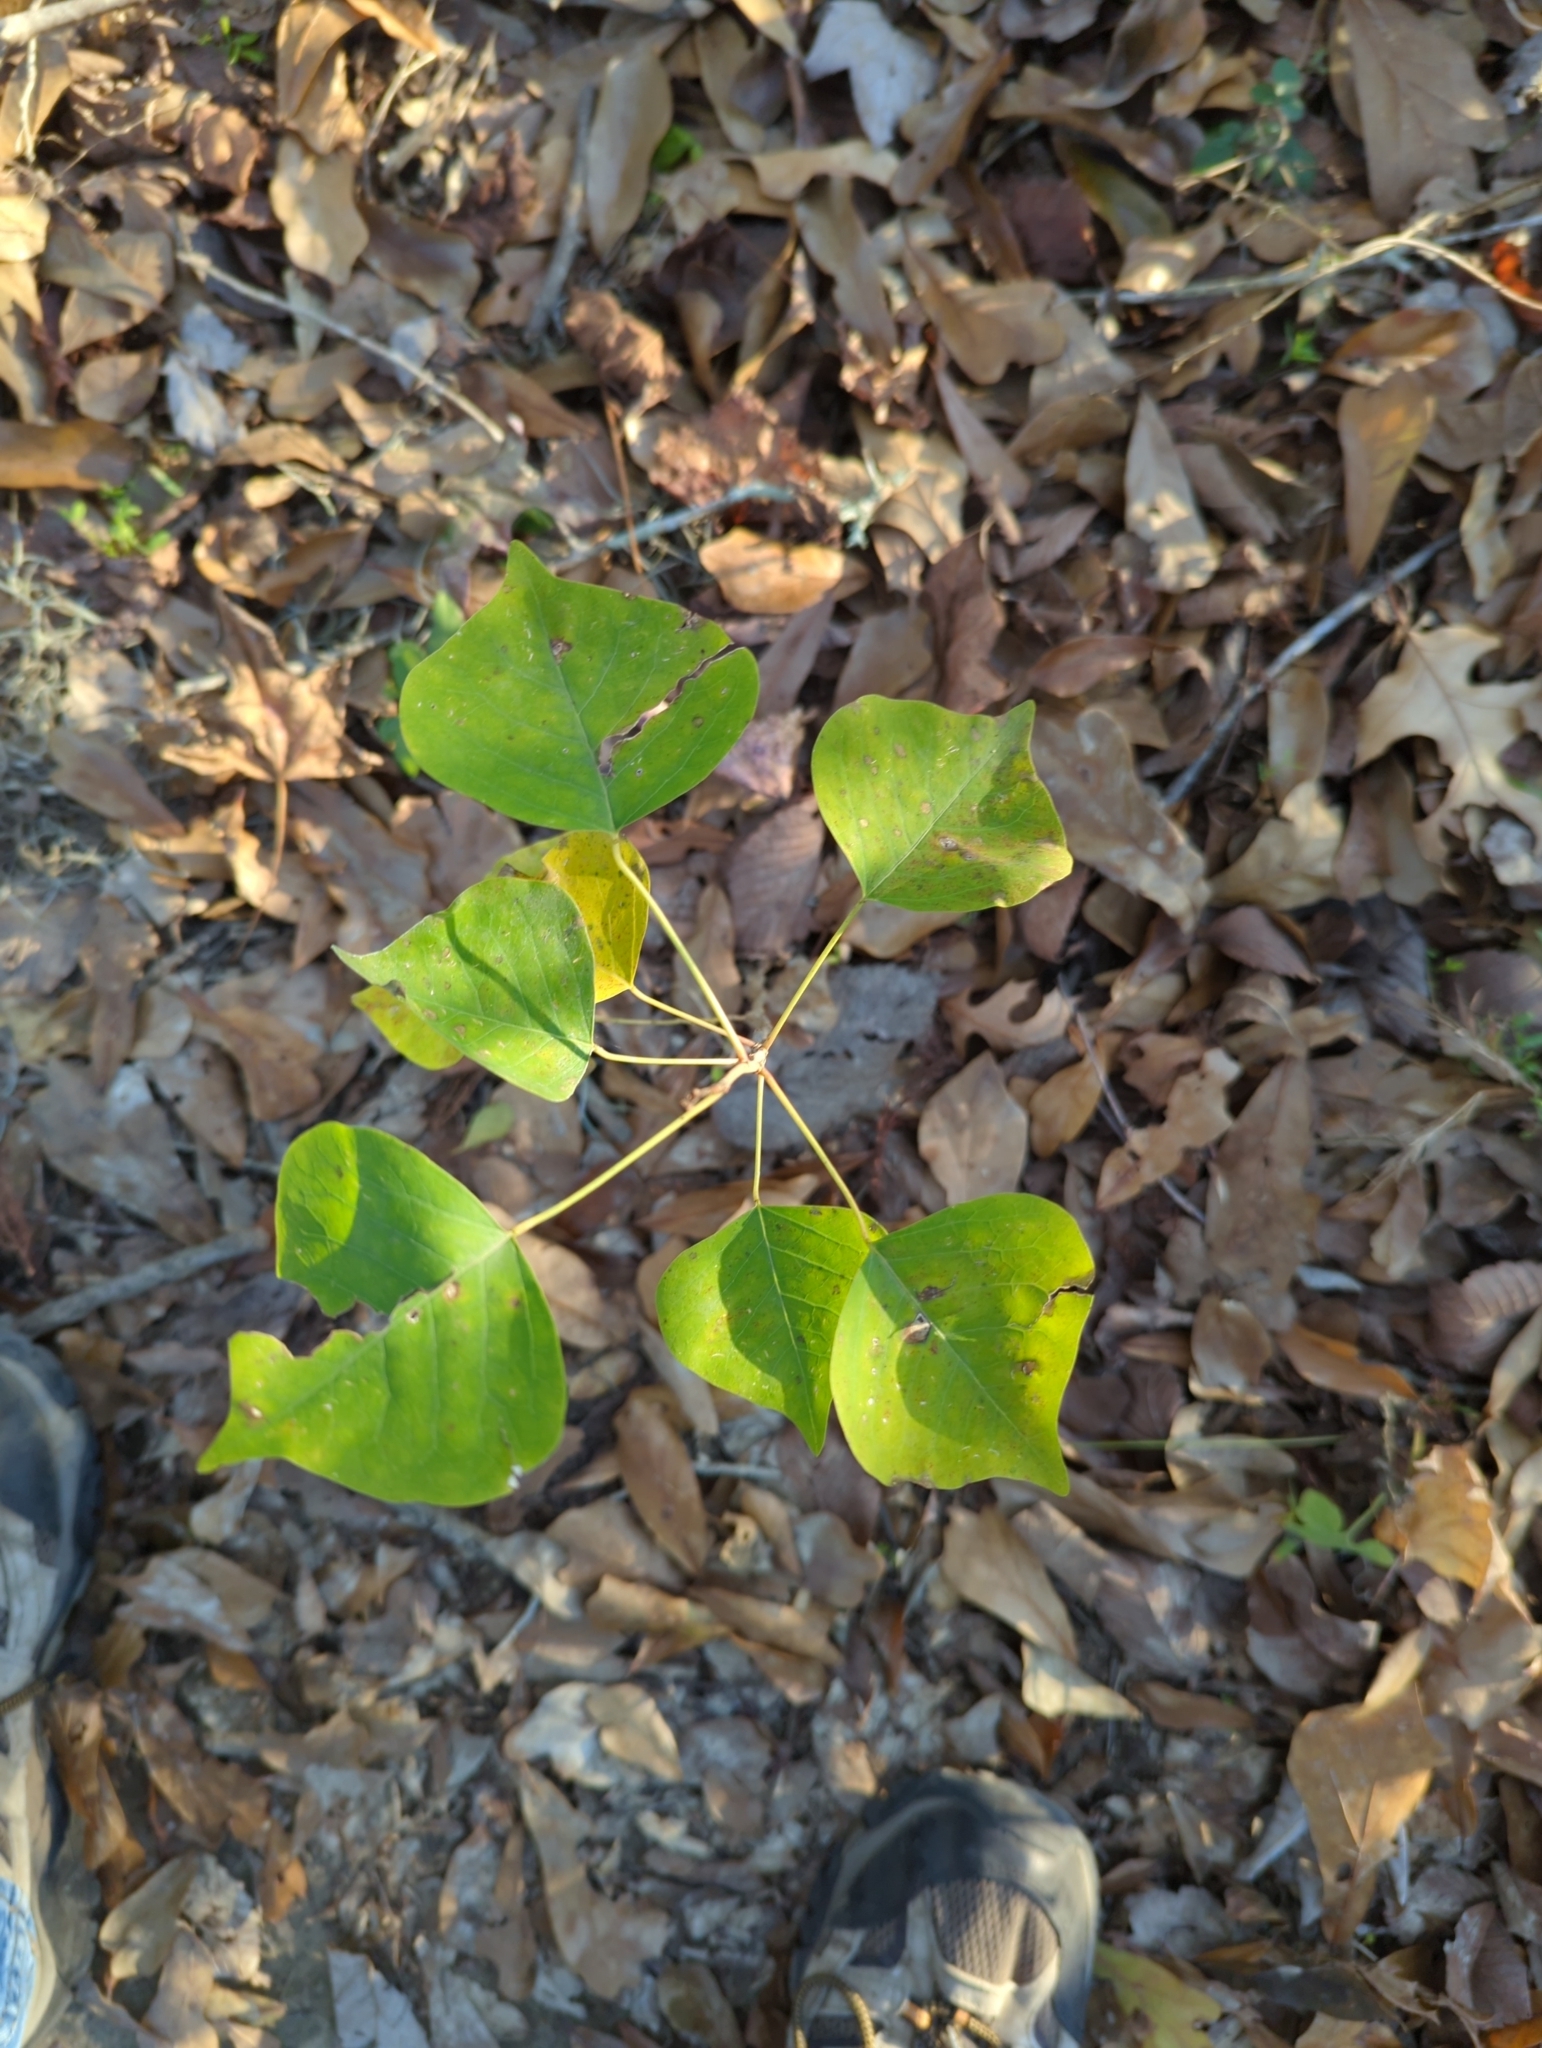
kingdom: Plantae
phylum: Tracheophyta
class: Magnoliopsida
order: Malpighiales
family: Euphorbiaceae
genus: Triadica
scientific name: Triadica sebifera
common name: Chinese tallow
